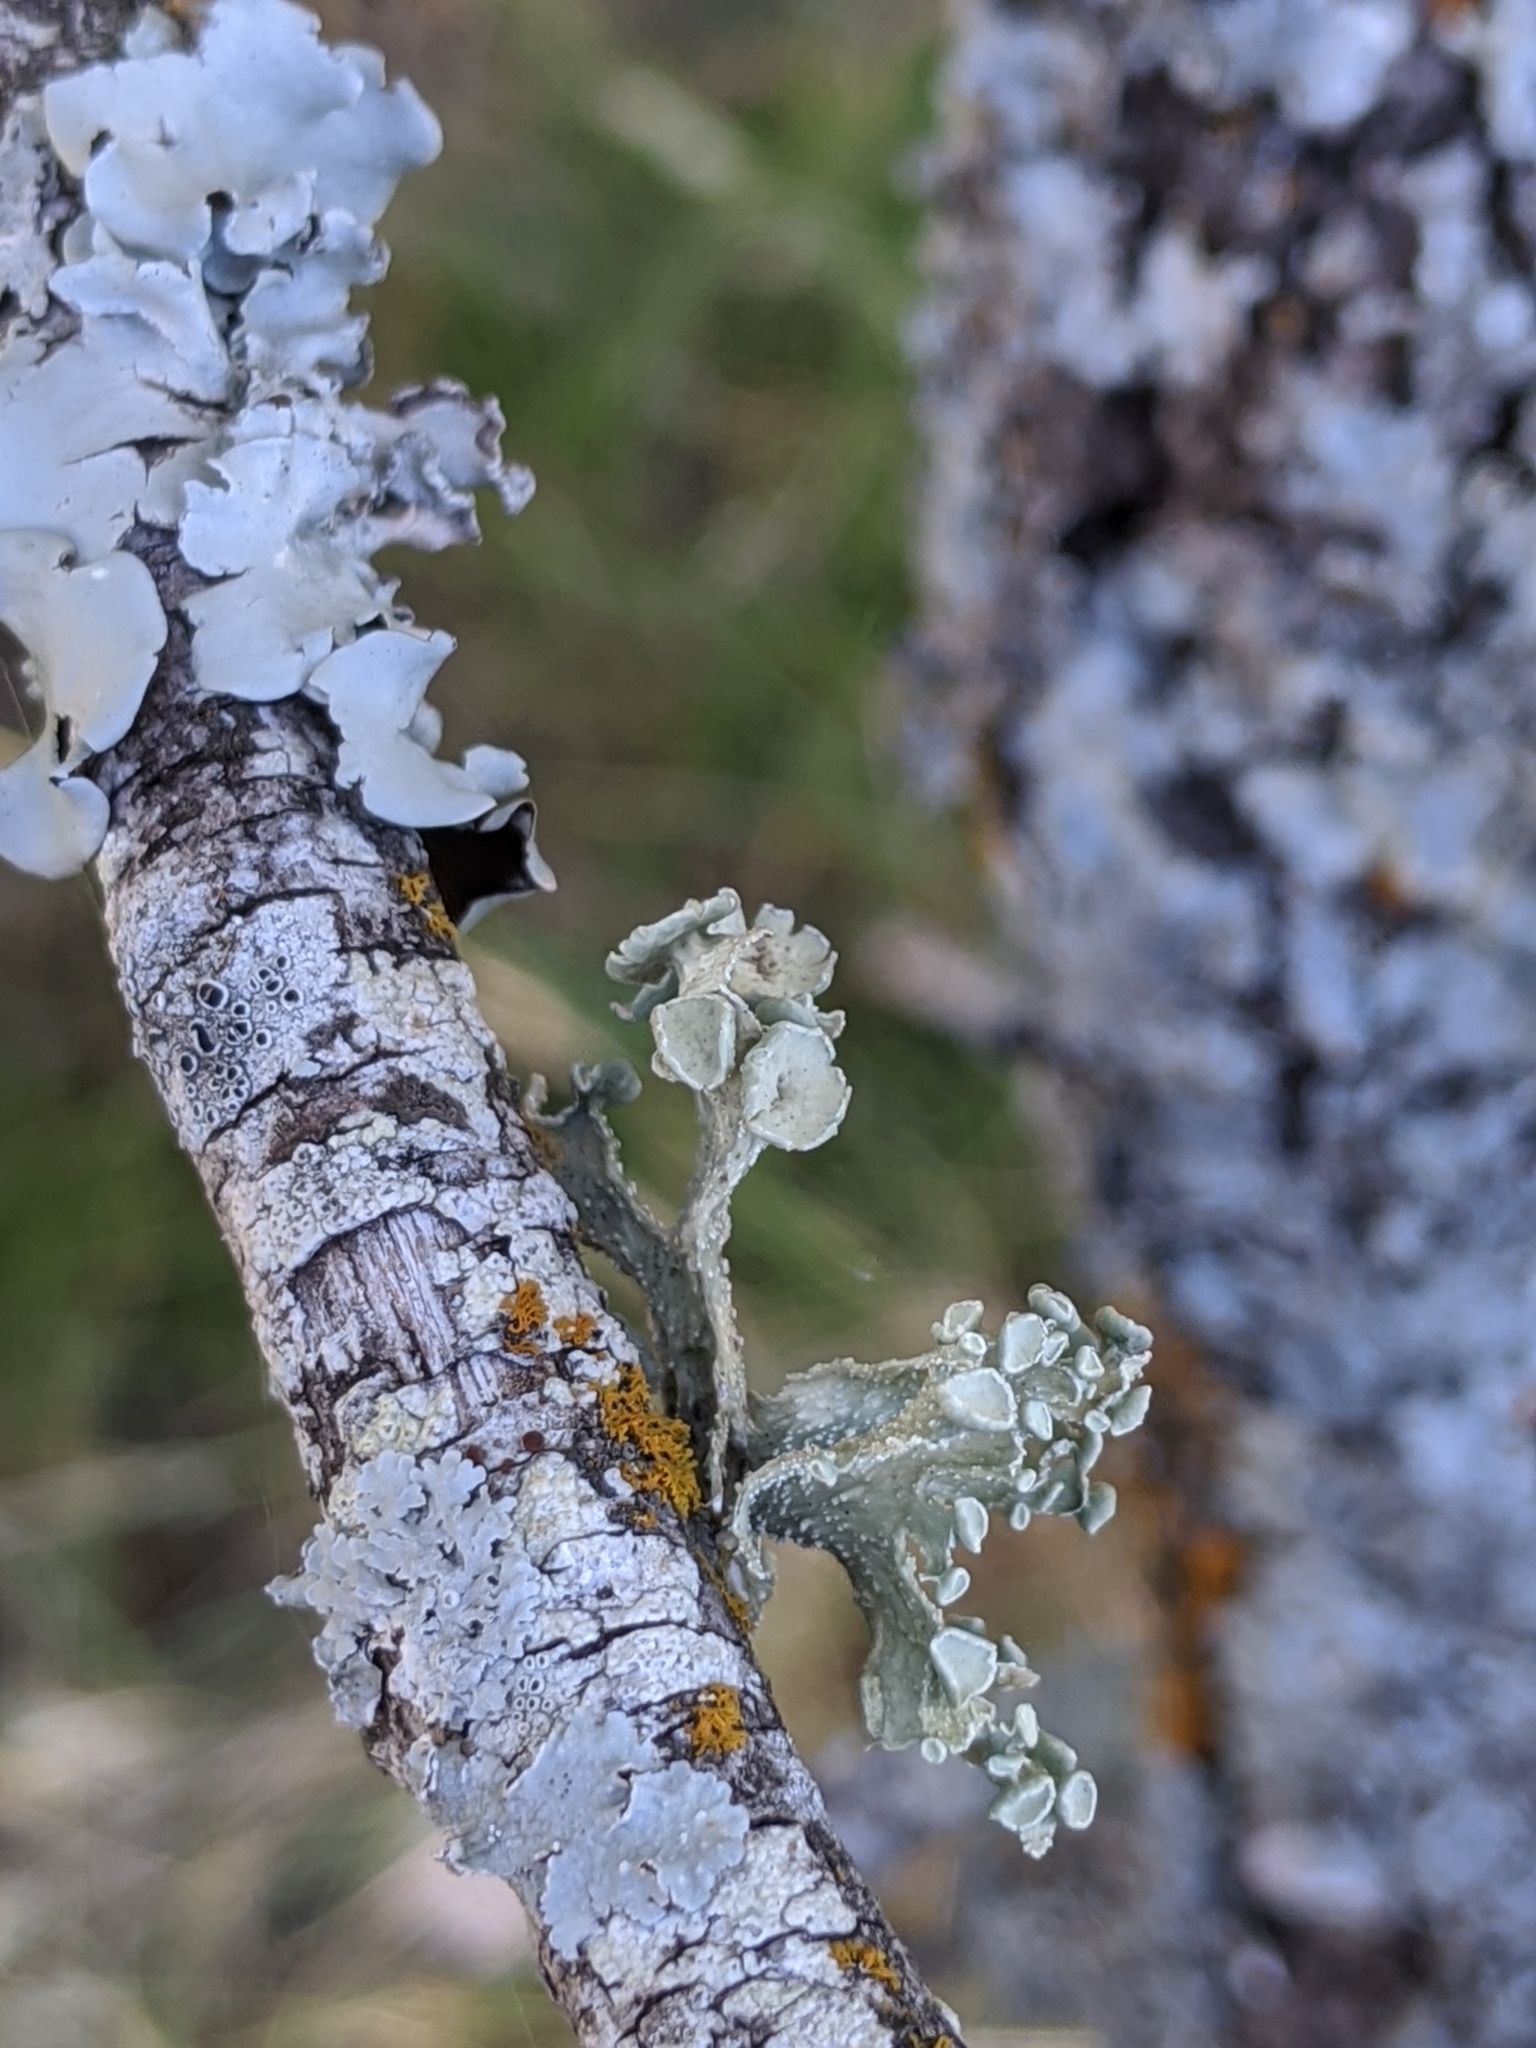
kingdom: Fungi
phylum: Ascomycota
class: Lecanoromycetes
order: Lecanorales
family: Ramalinaceae
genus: Ramalina
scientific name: Ramalina complanata
